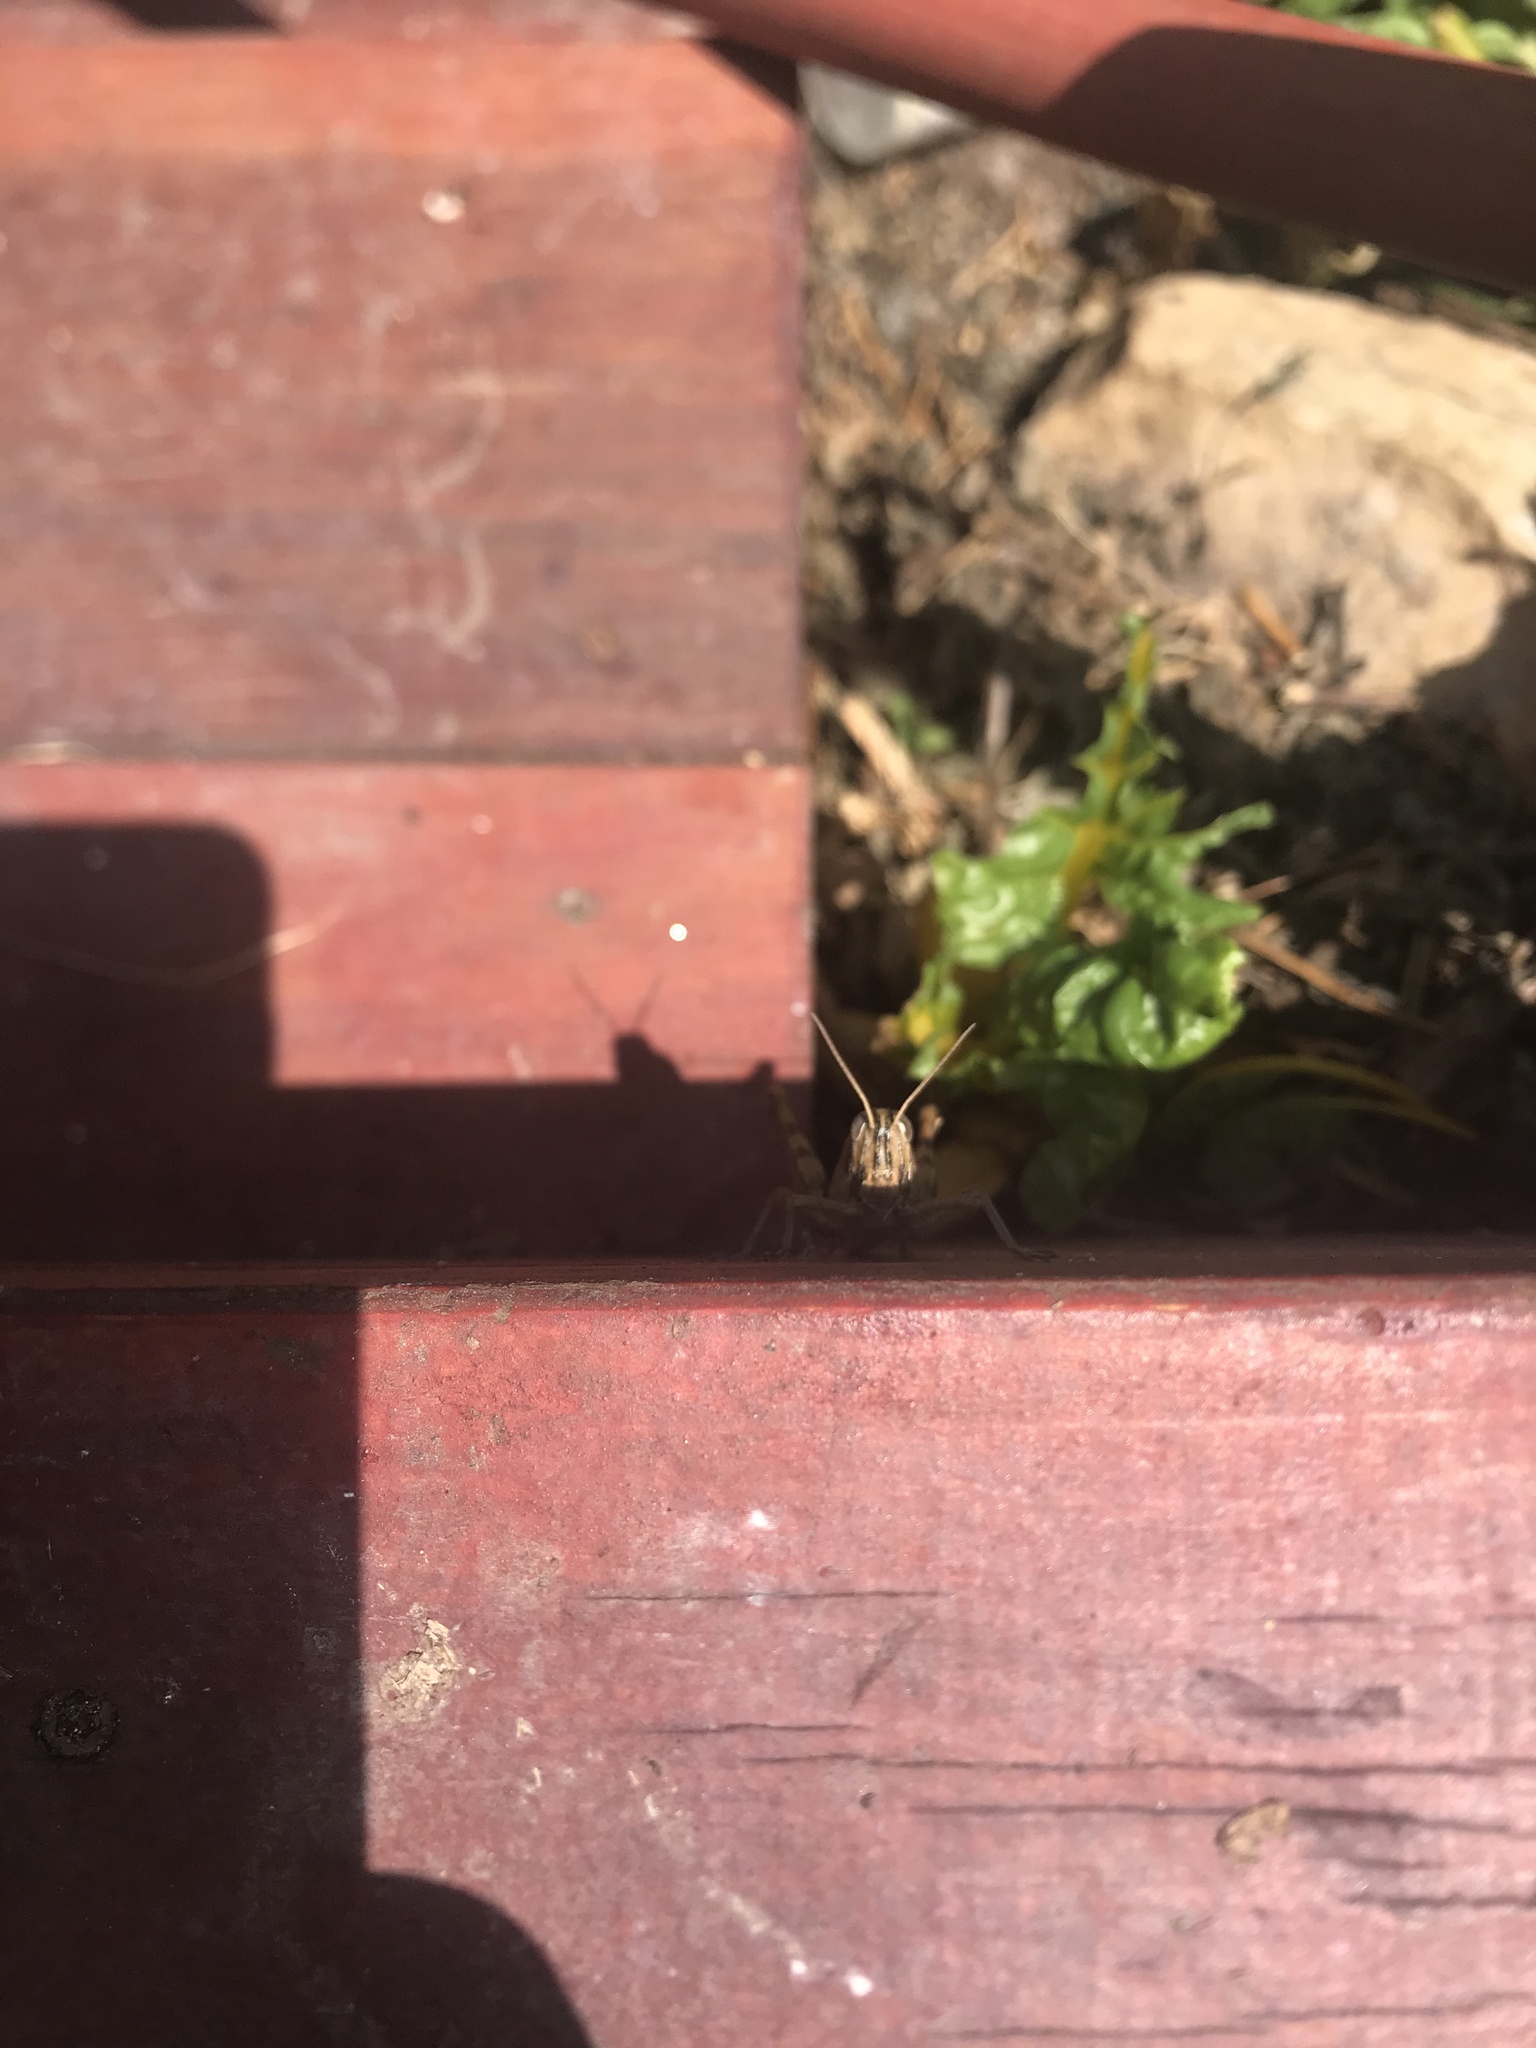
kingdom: Animalia
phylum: Arthropoda
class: Insecta
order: Orthoptera
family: Acrididae
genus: Schistocerca
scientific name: Schistocerca nitens
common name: Vagrant grasshopper
